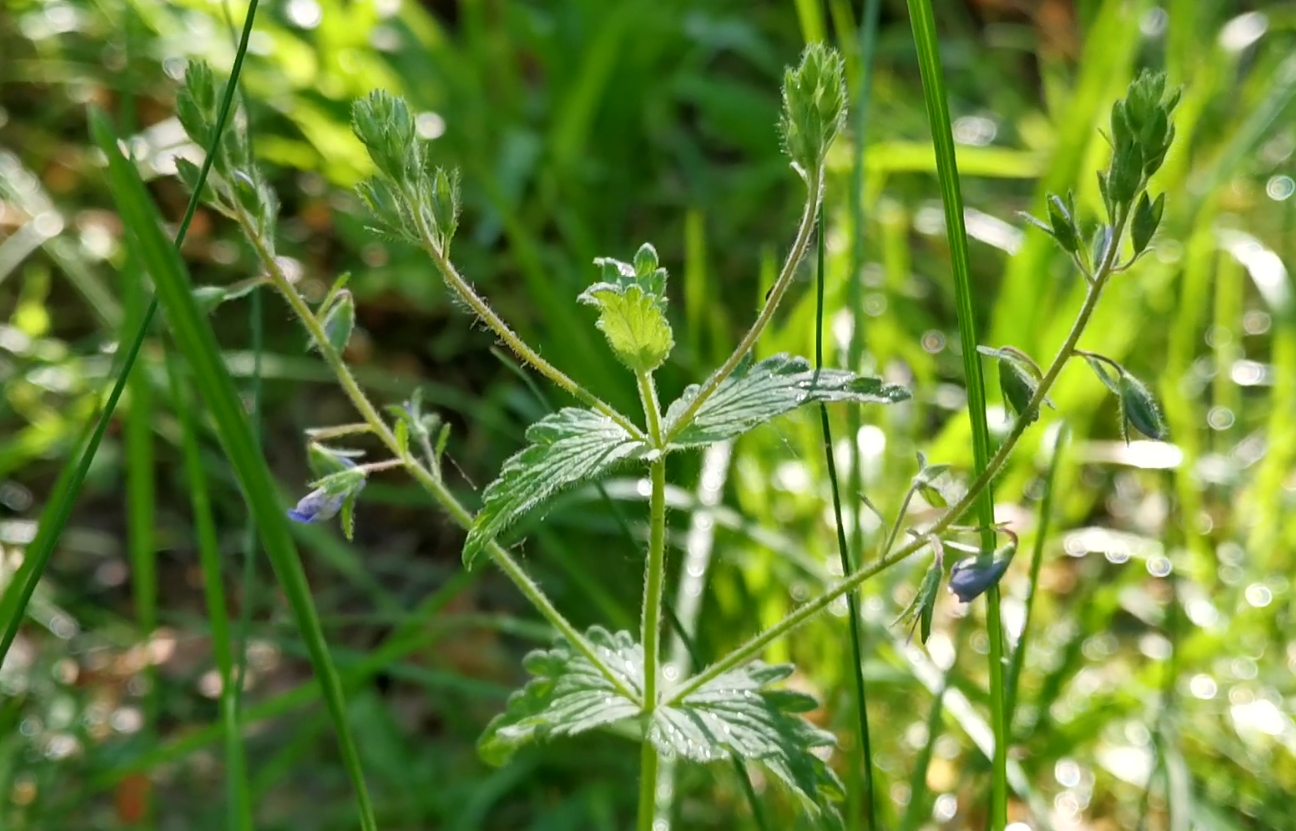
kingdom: Plantae
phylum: Tracheophyta
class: Magnoliopsida
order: Lamiales
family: Plantaginaceae
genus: Veronica
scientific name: Veronica chamaedrys
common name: Germander speedwell
